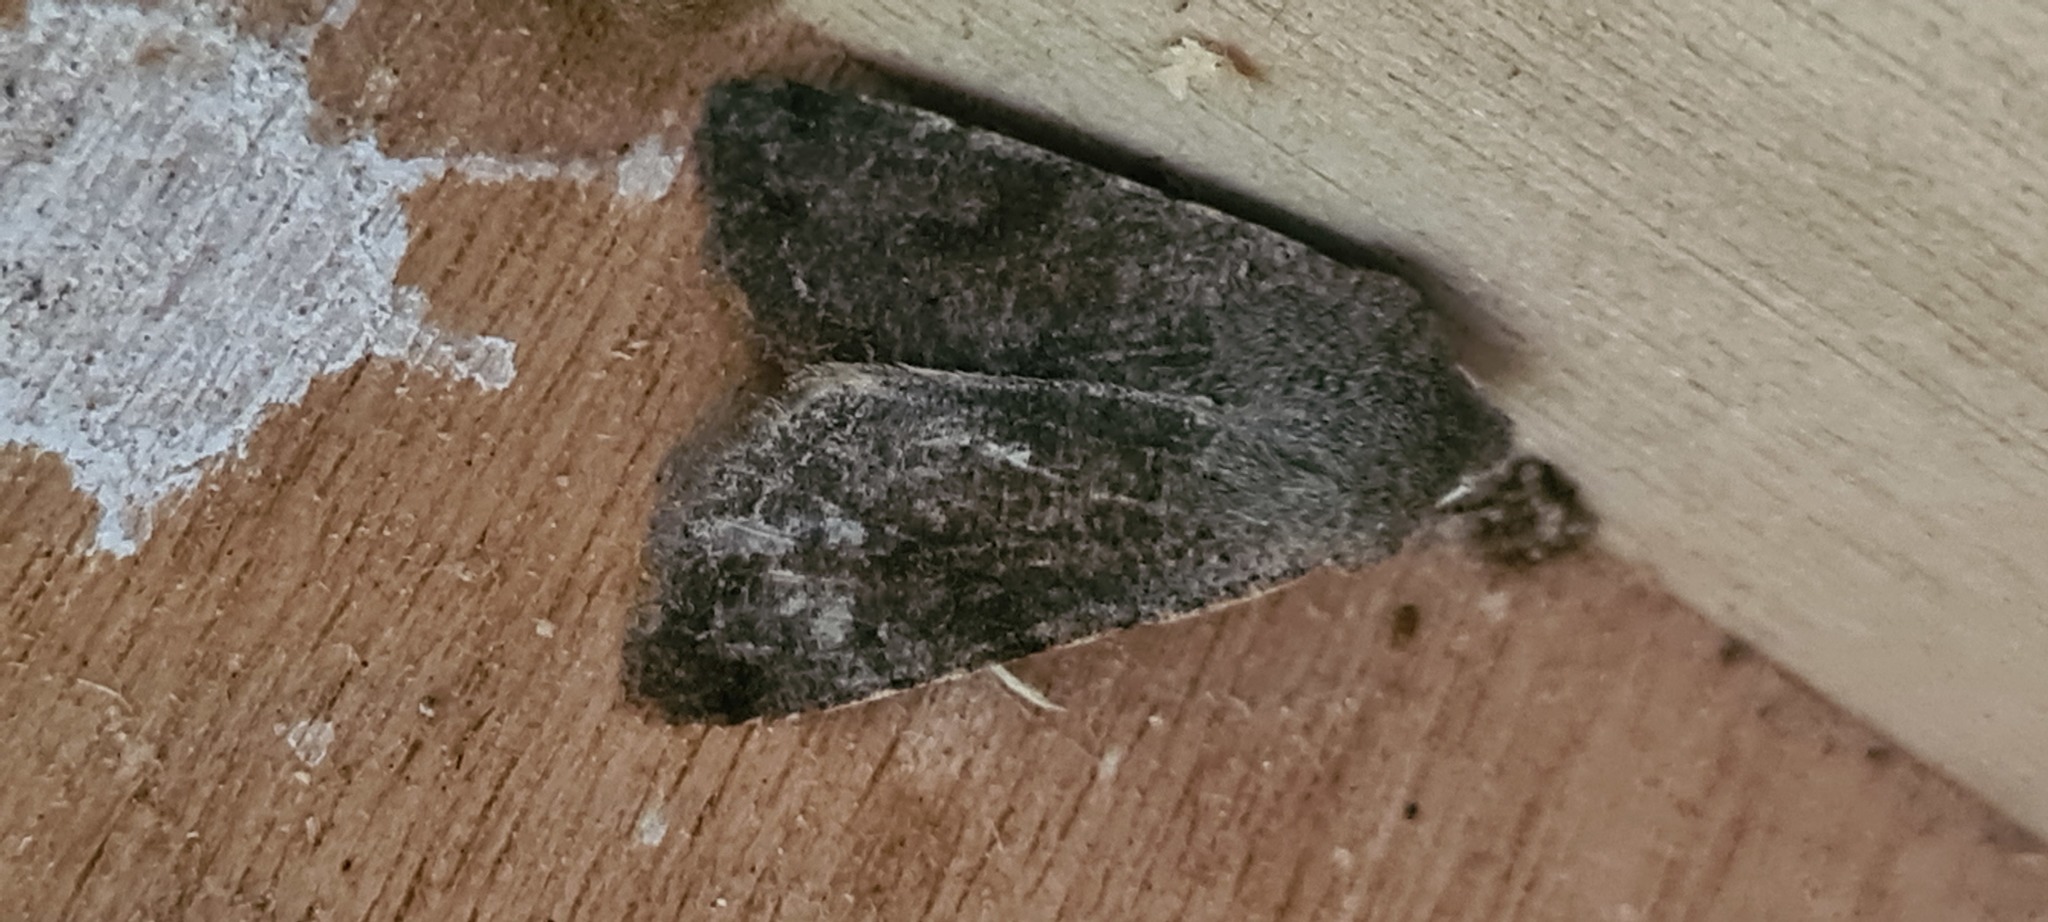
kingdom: Animalia
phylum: Arthropoda
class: Insecta
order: Lepidoptera
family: Noctuidae
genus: Orthosia
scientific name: Orthosia incerta
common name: Clouded drab
